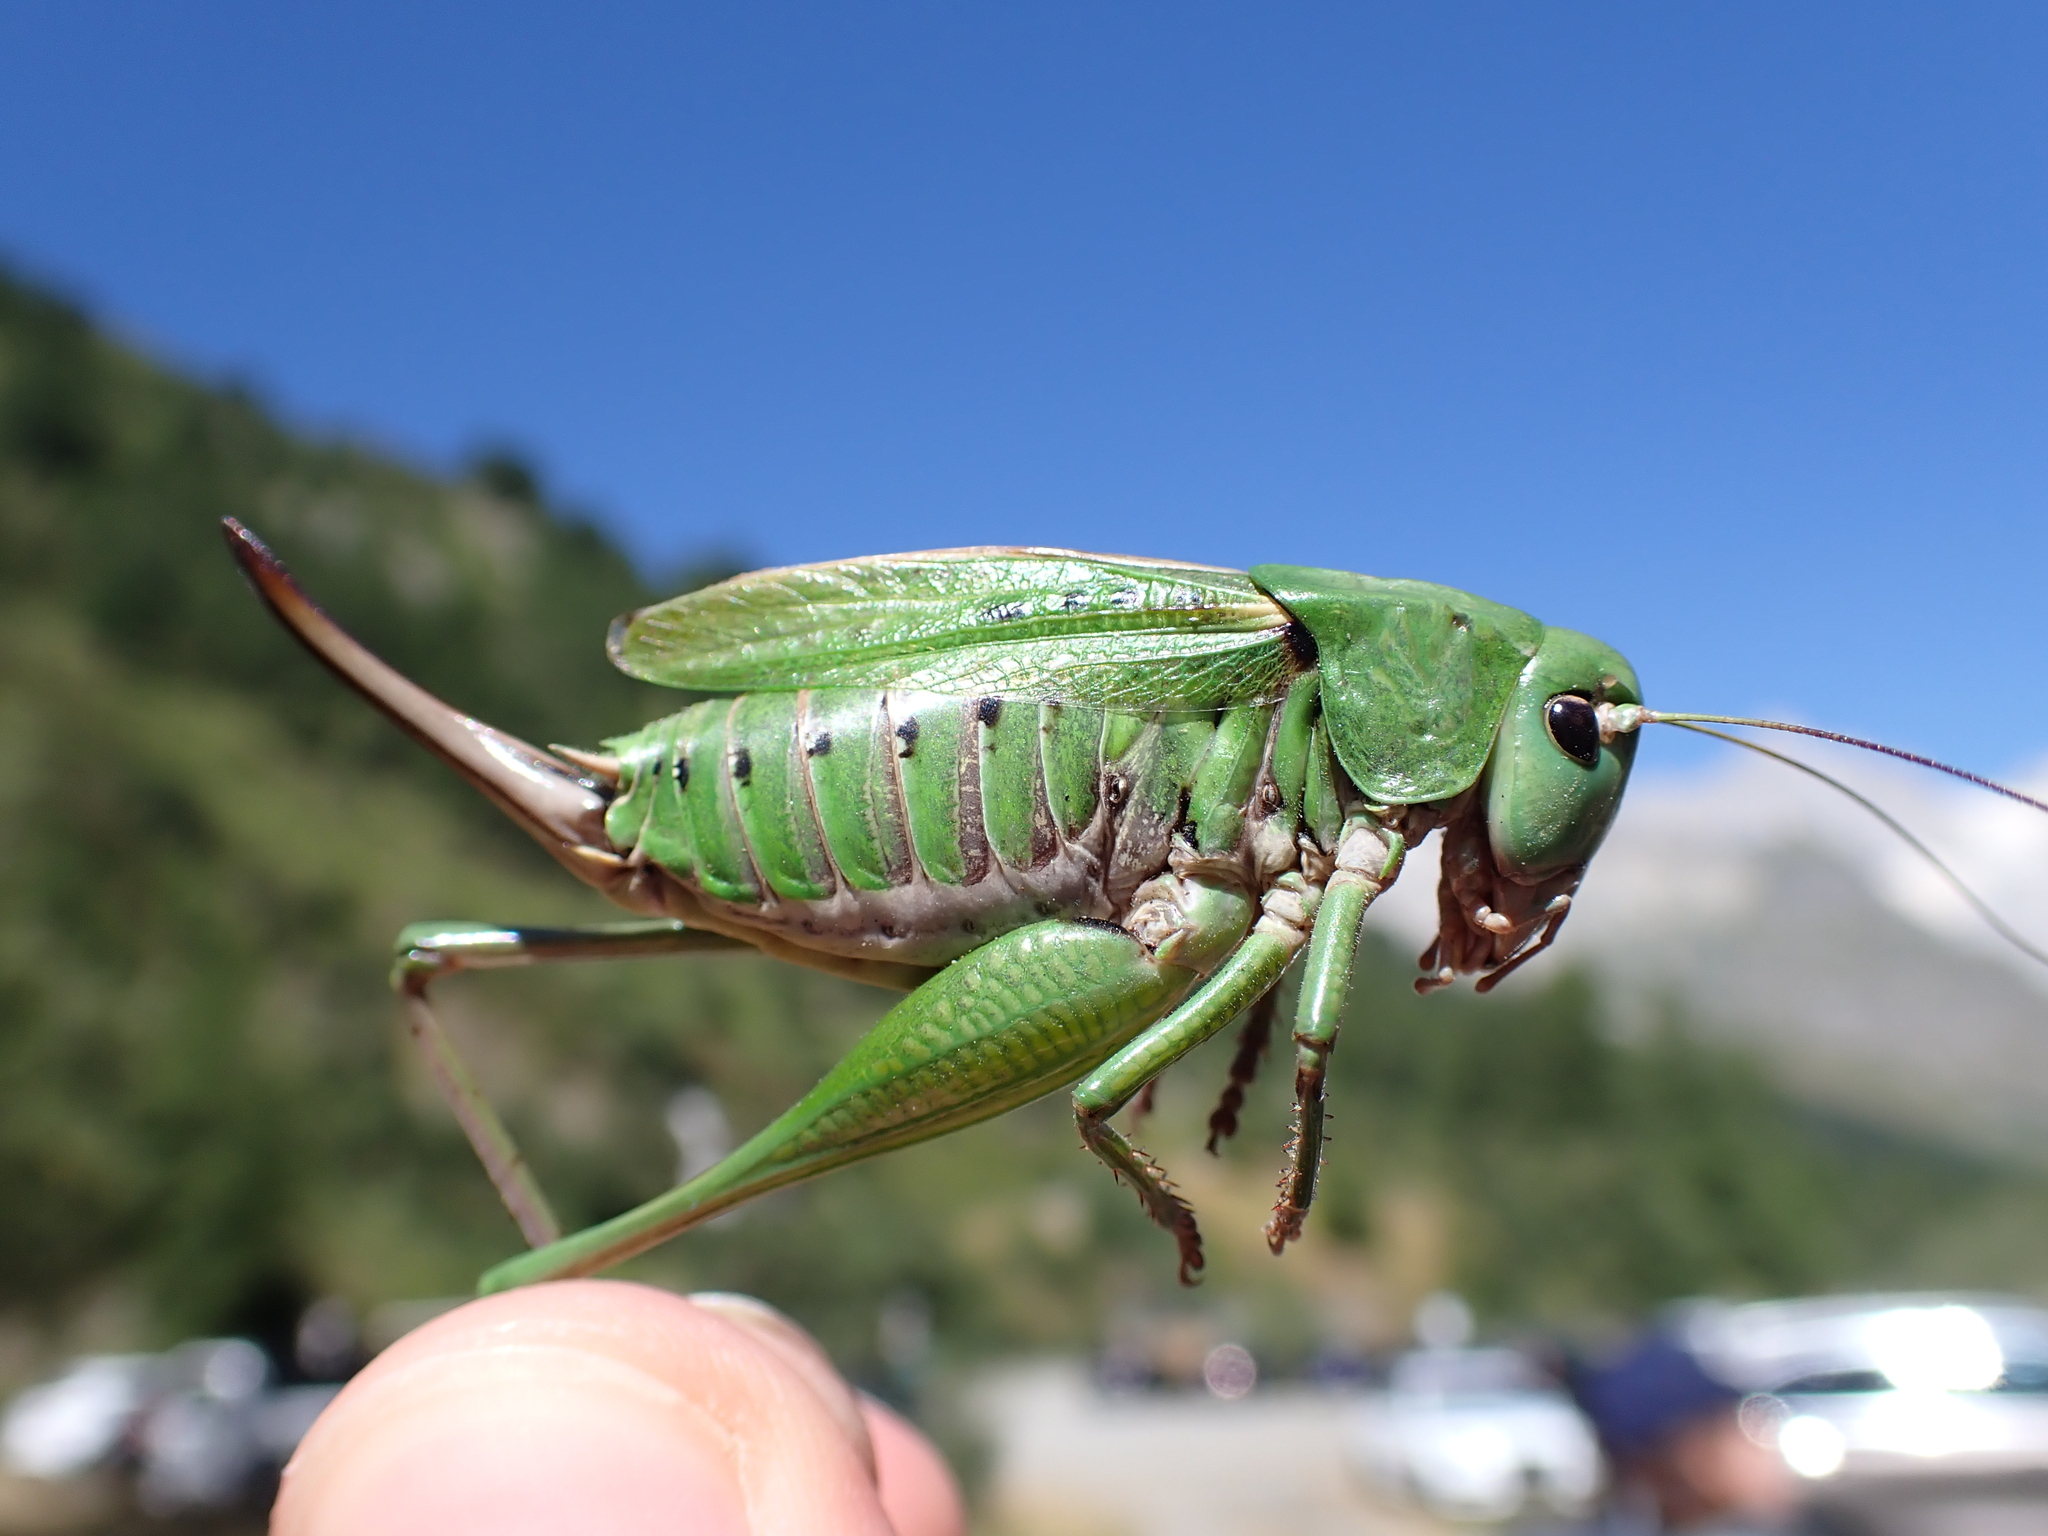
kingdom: Animalia
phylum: Arthropoda
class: Insecta
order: Orthoptera
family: Tettigoniidae
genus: Decticus
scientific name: Decticus verrucivorus
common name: Wart-biter
